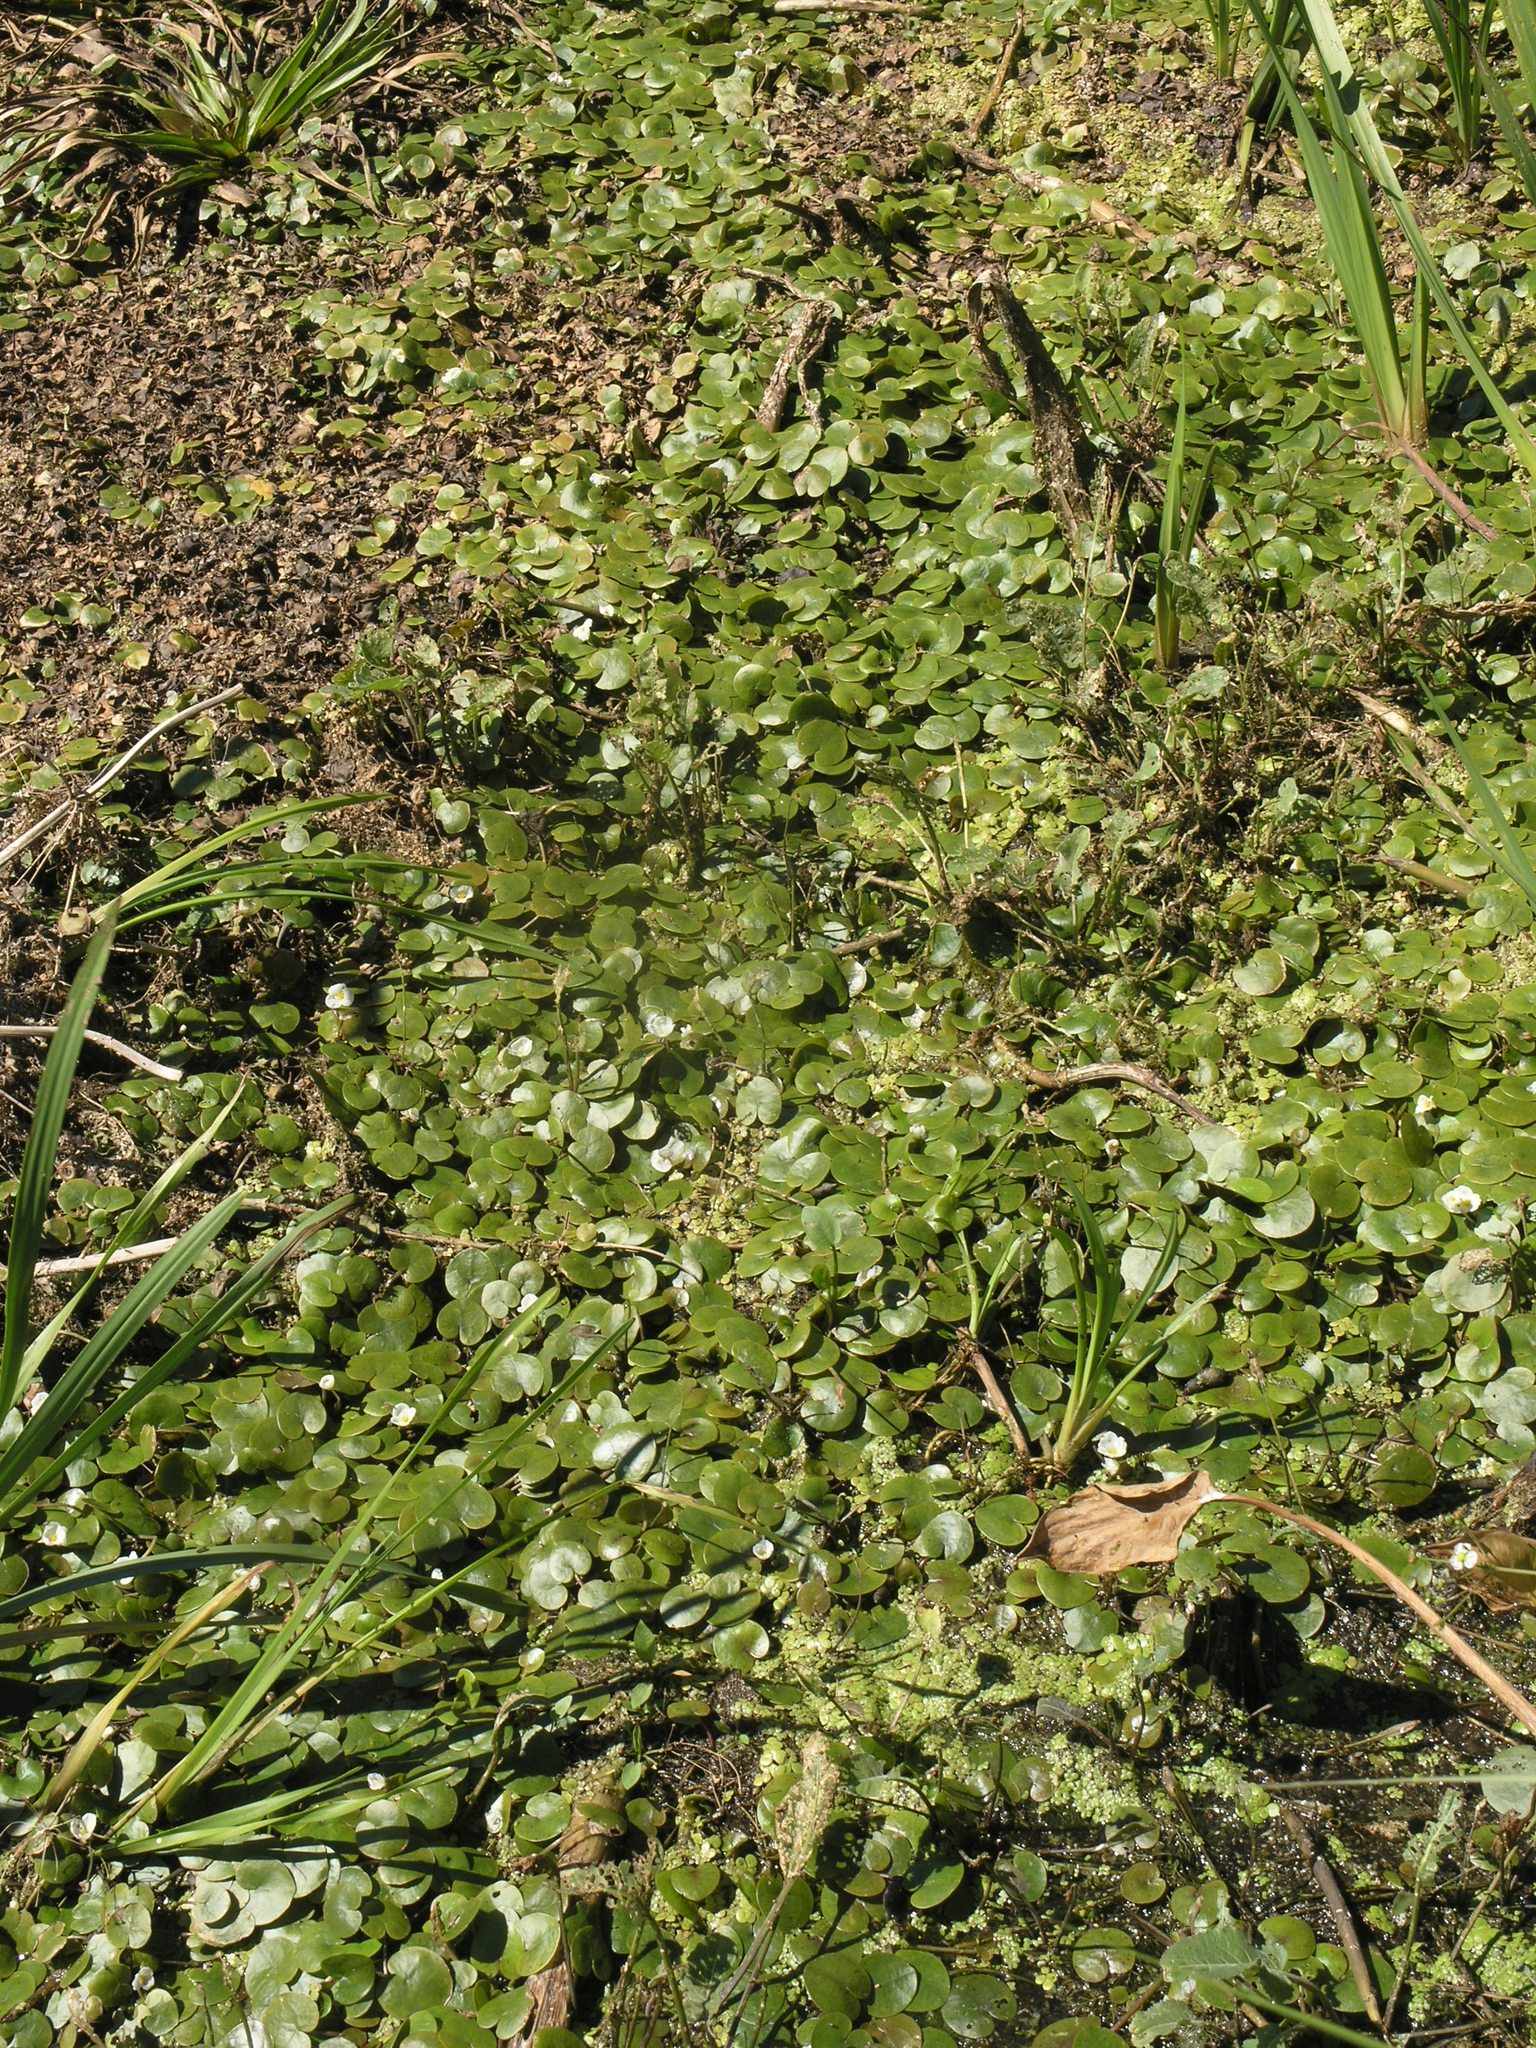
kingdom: Plantae
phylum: Tracheophyta
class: Liliopsida
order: Alismatales
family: Hydrocharitaceae
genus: Hydrocharis
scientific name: Hydrocharis morsus-ranae
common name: Frogbit
